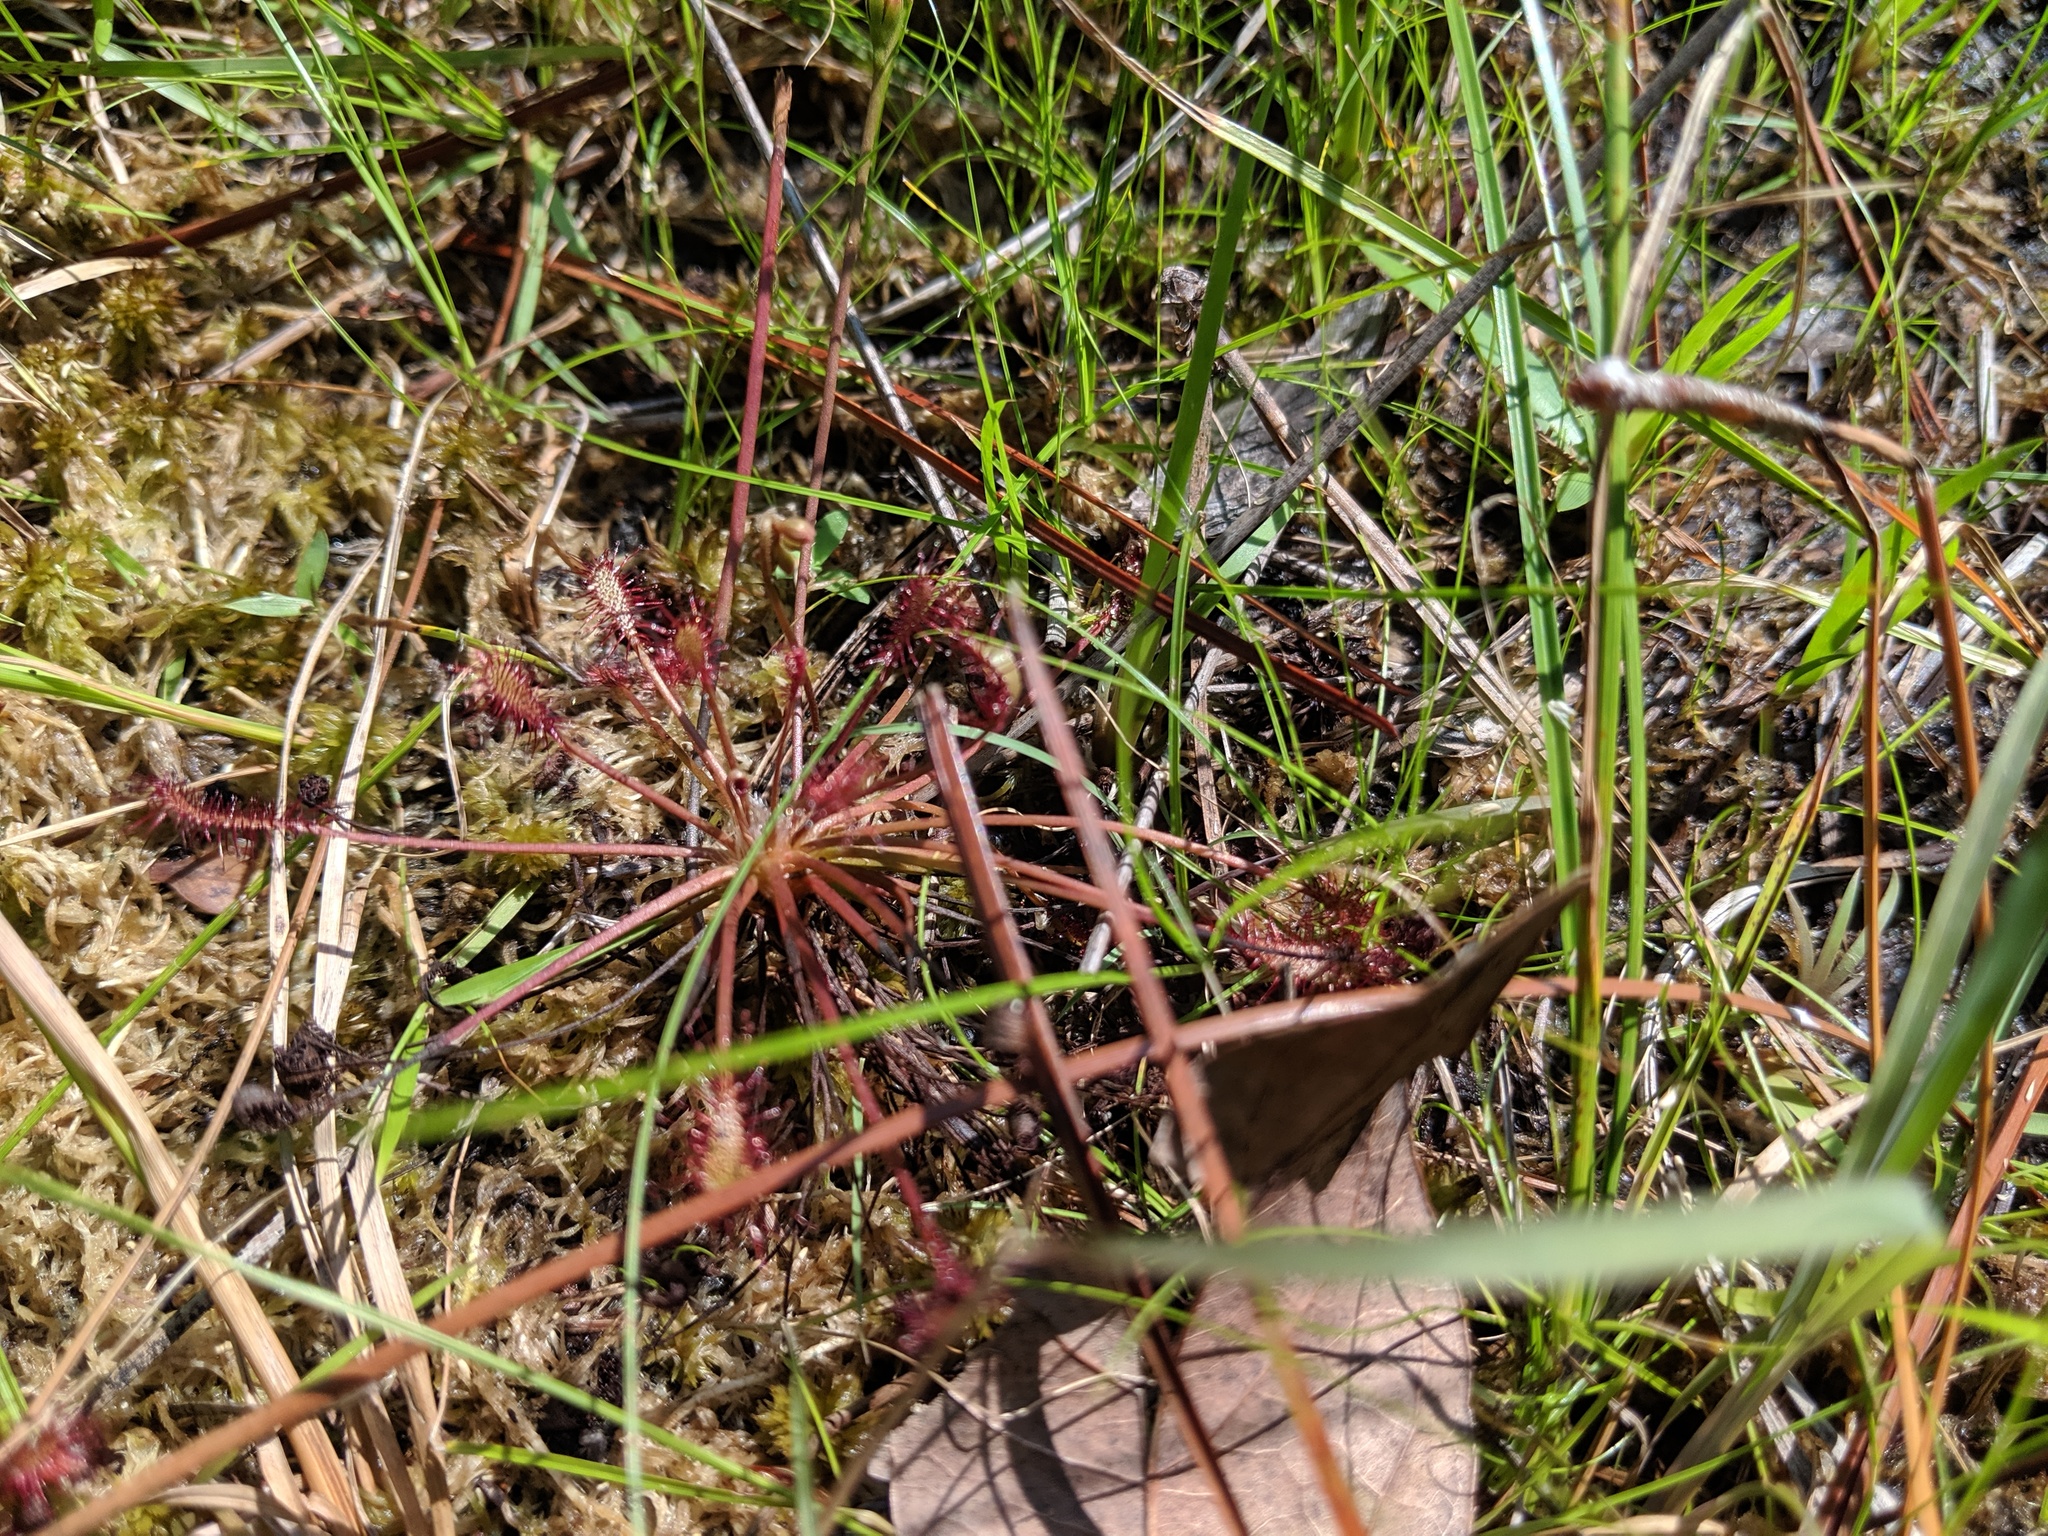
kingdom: Plantae
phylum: Tracheophyta
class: Magnoliopsida
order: Caryophyllales
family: Droseraceae
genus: Drosera
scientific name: Drosera intermedia
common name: Oblong-leaved sundew
